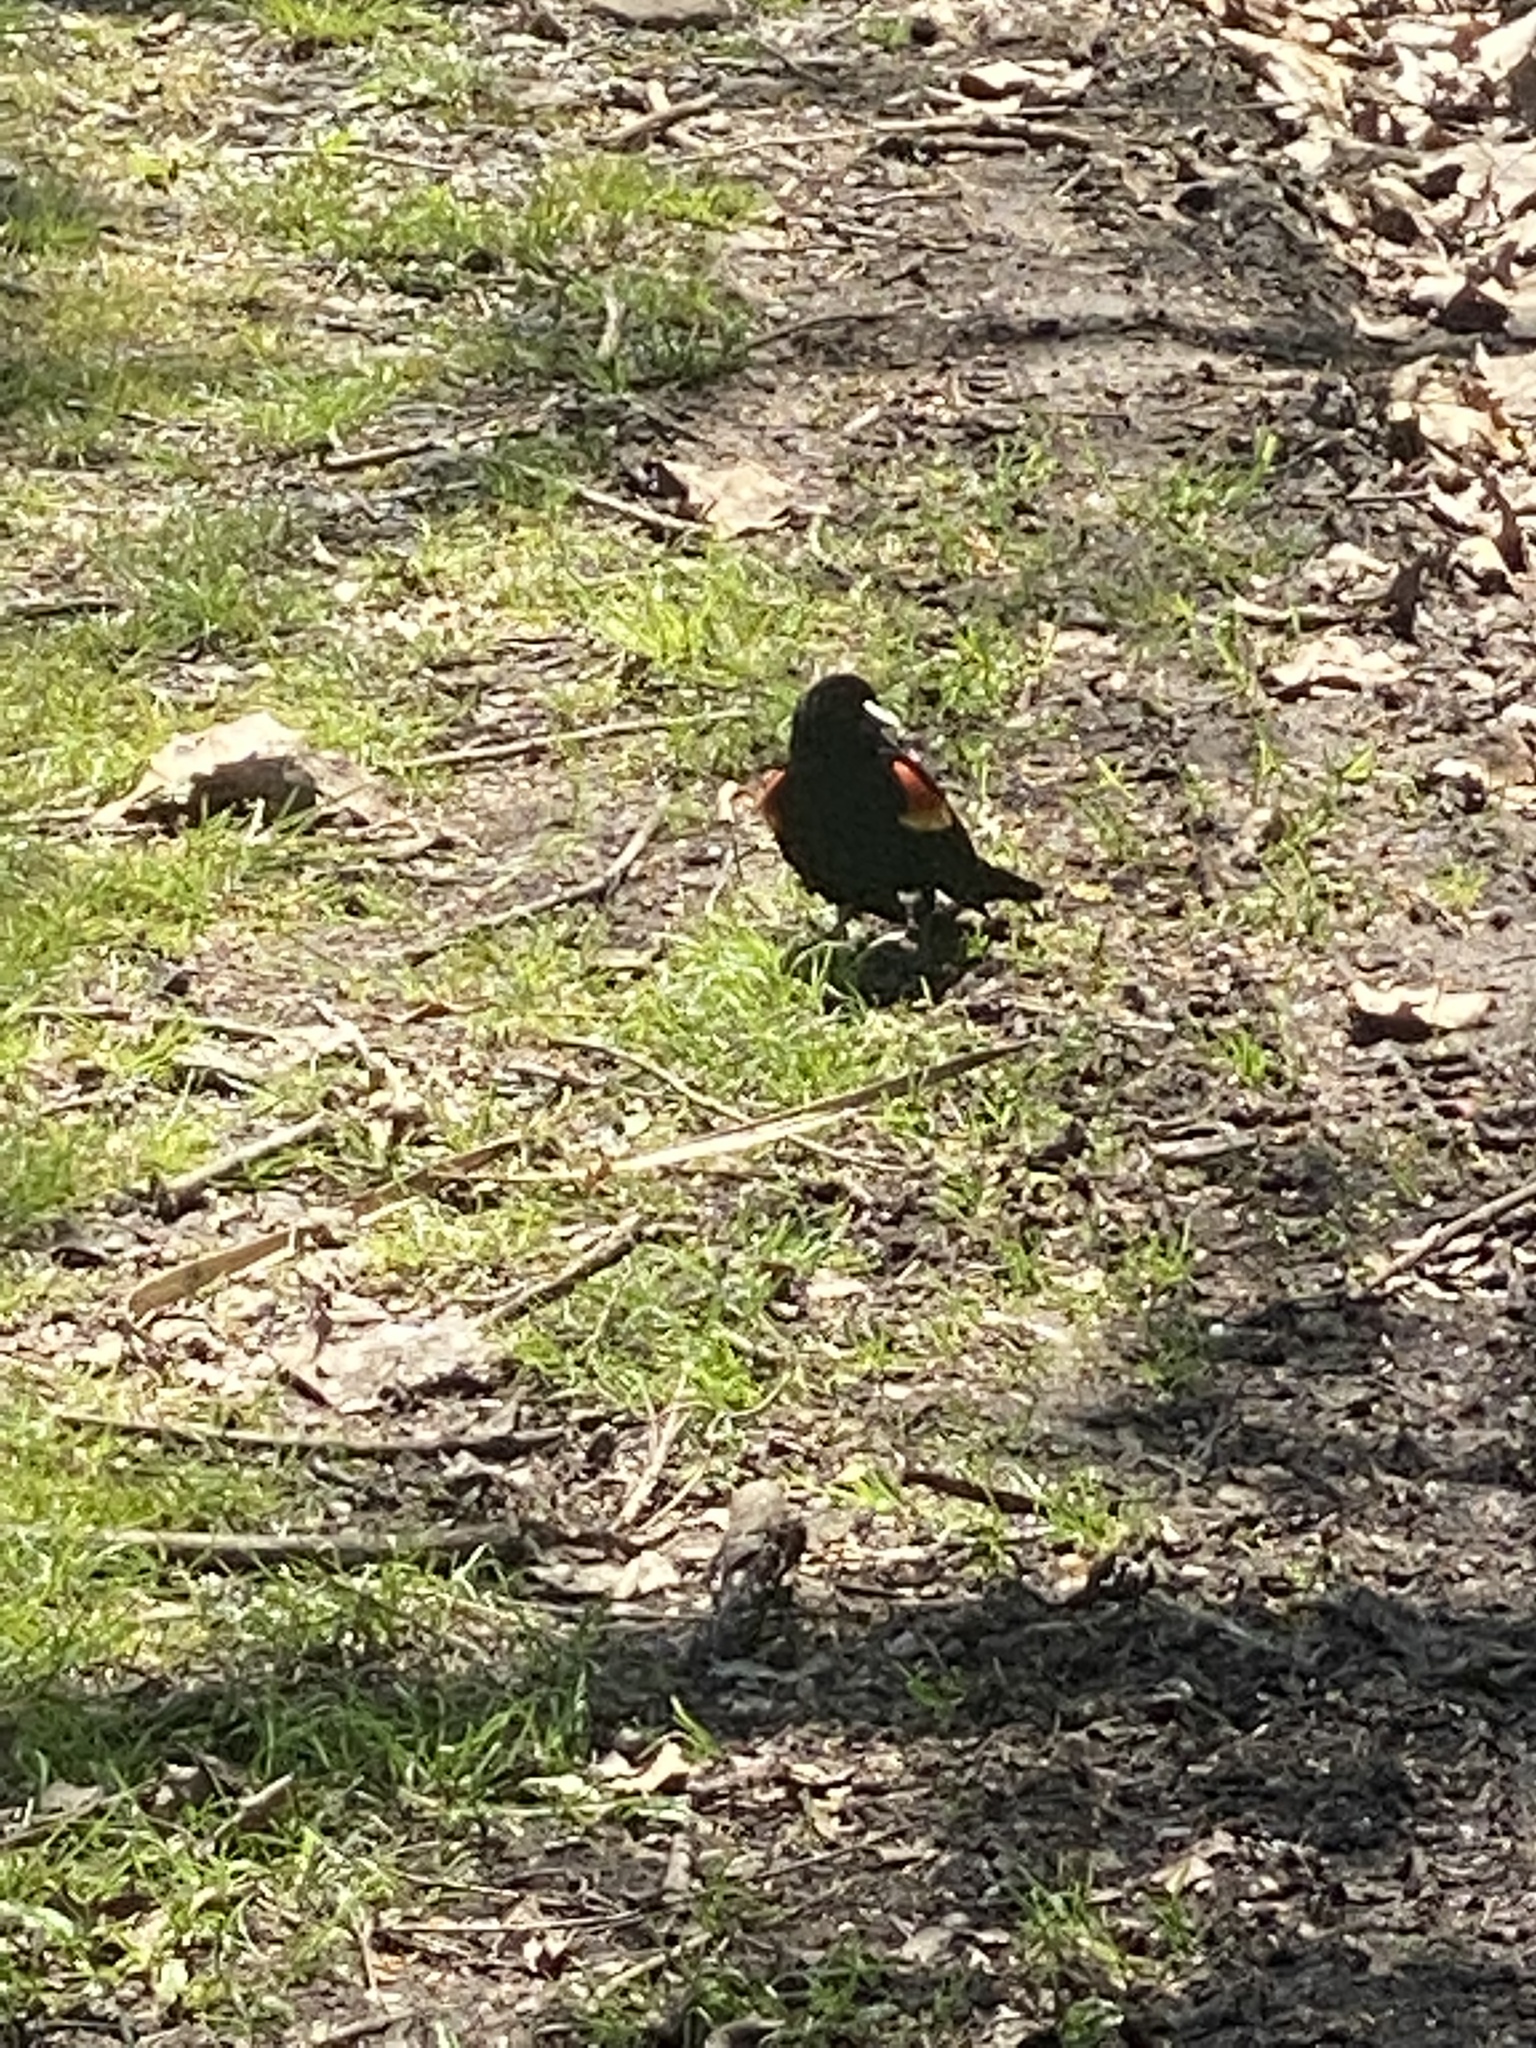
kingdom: Animalia
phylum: Chordata
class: Aves
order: Passeriformes
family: Icteridae
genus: Agelaius
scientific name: Agelaius phoeniceus
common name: Red-winged blackbird
